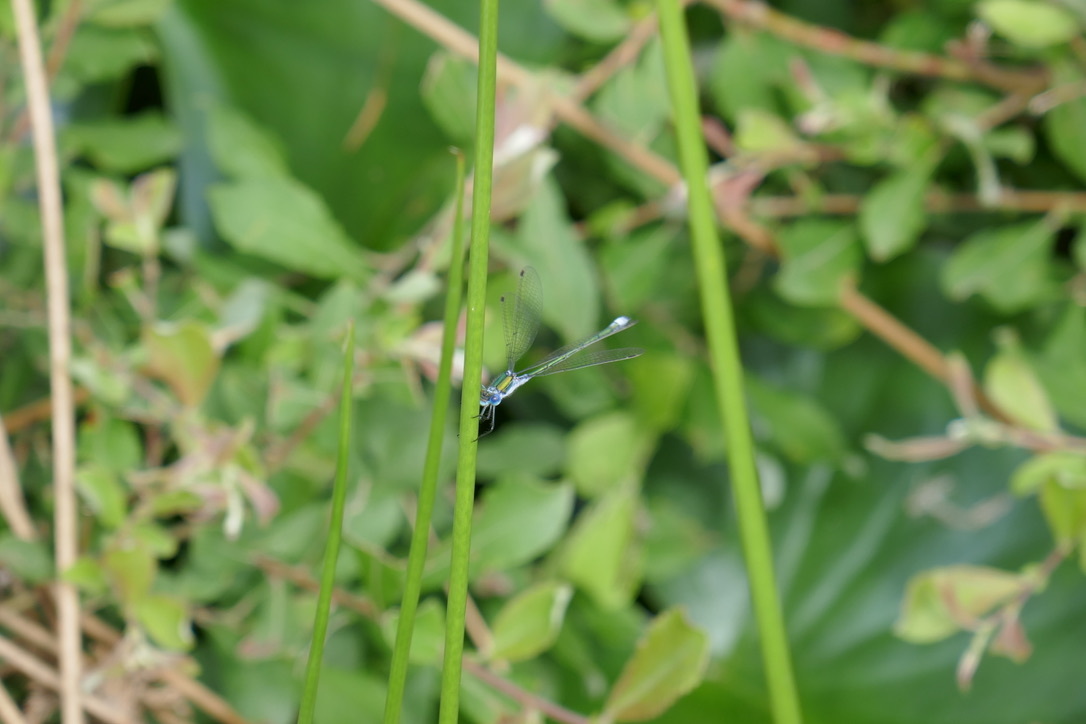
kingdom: Animalia
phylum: Arthropoda
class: Insecta
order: Odonata
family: Lestidae
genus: Lestes
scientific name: Lestes sponsa
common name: Common spreadwing
